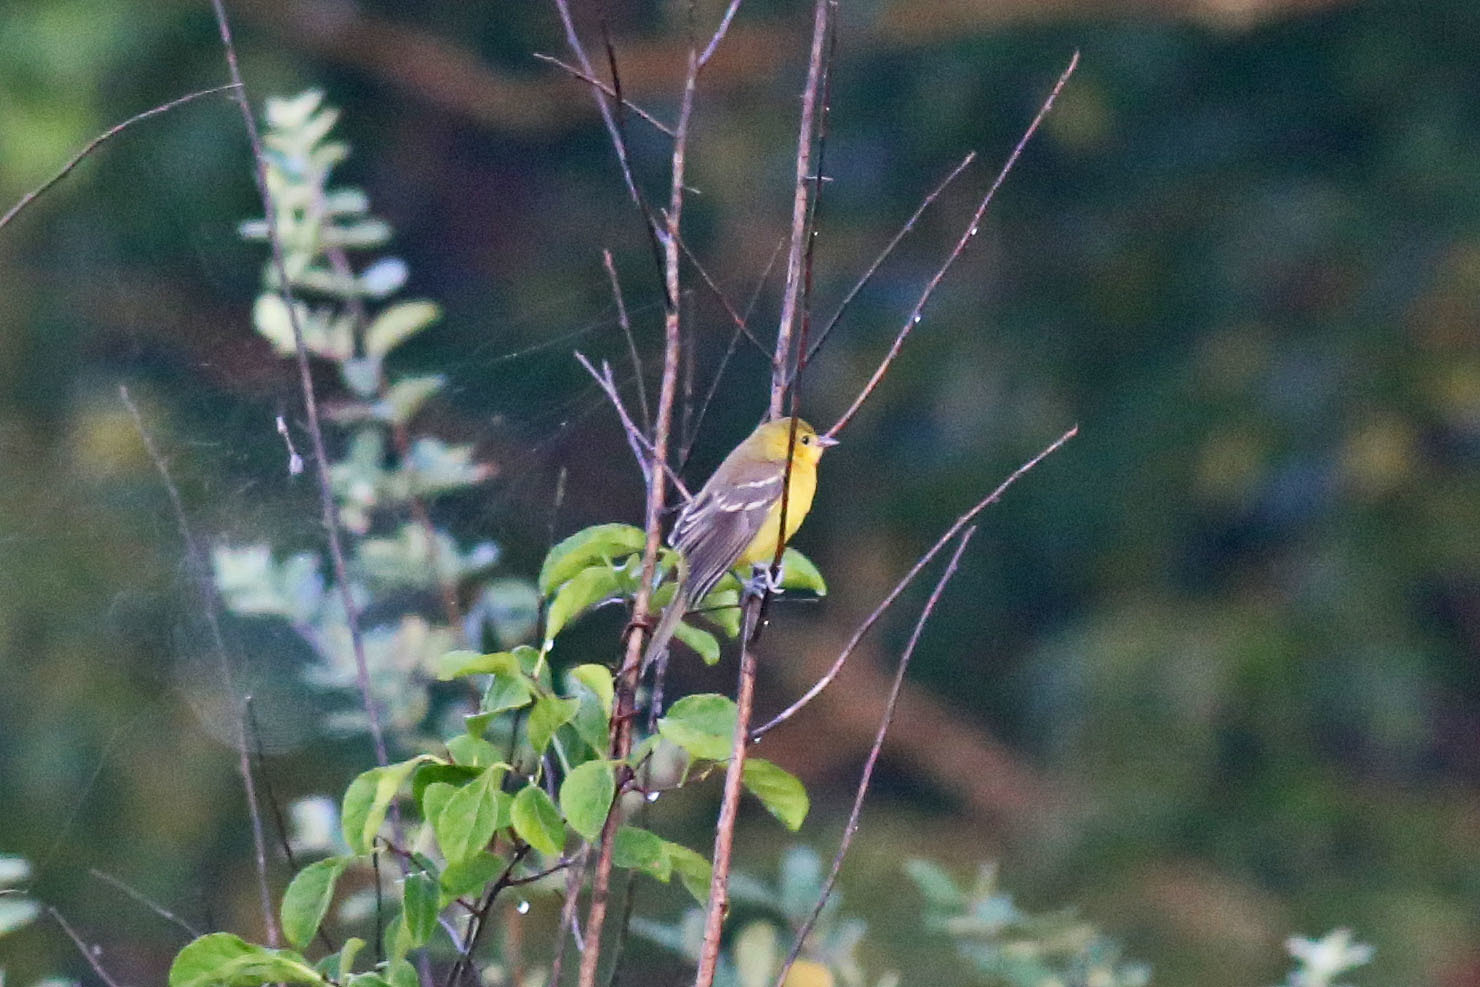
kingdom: Animalia
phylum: Chordata
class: Aves
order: Passeriformes
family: Icteridae
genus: Icterus
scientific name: Icterus spurius
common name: Orchard oriole
